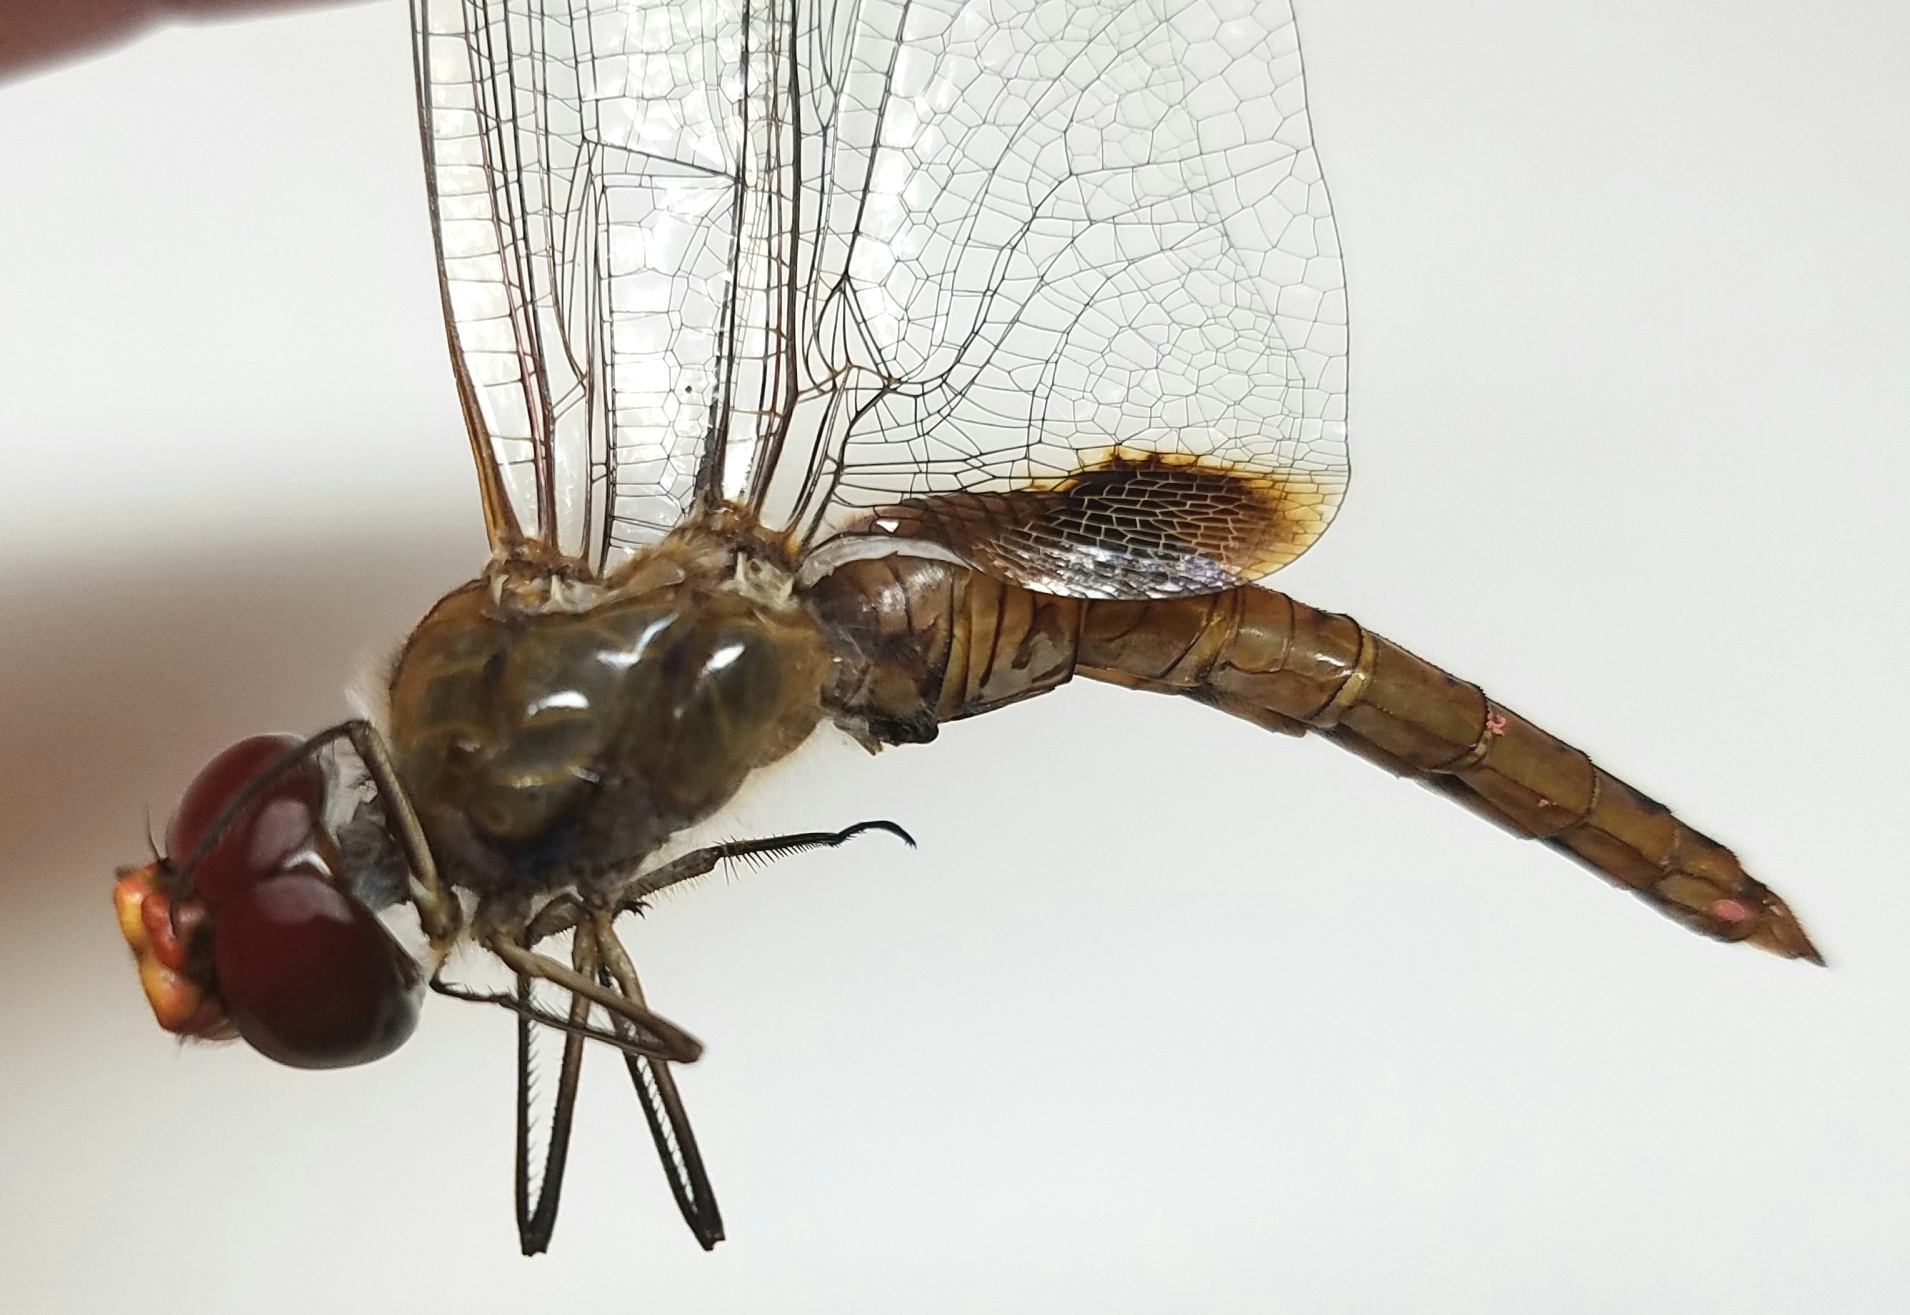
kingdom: Animalia
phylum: Arthropoda
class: Insecta
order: Odonata
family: Libellulidae
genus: Pantala
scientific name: Pantala hymenaea
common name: Spot-winged glider
